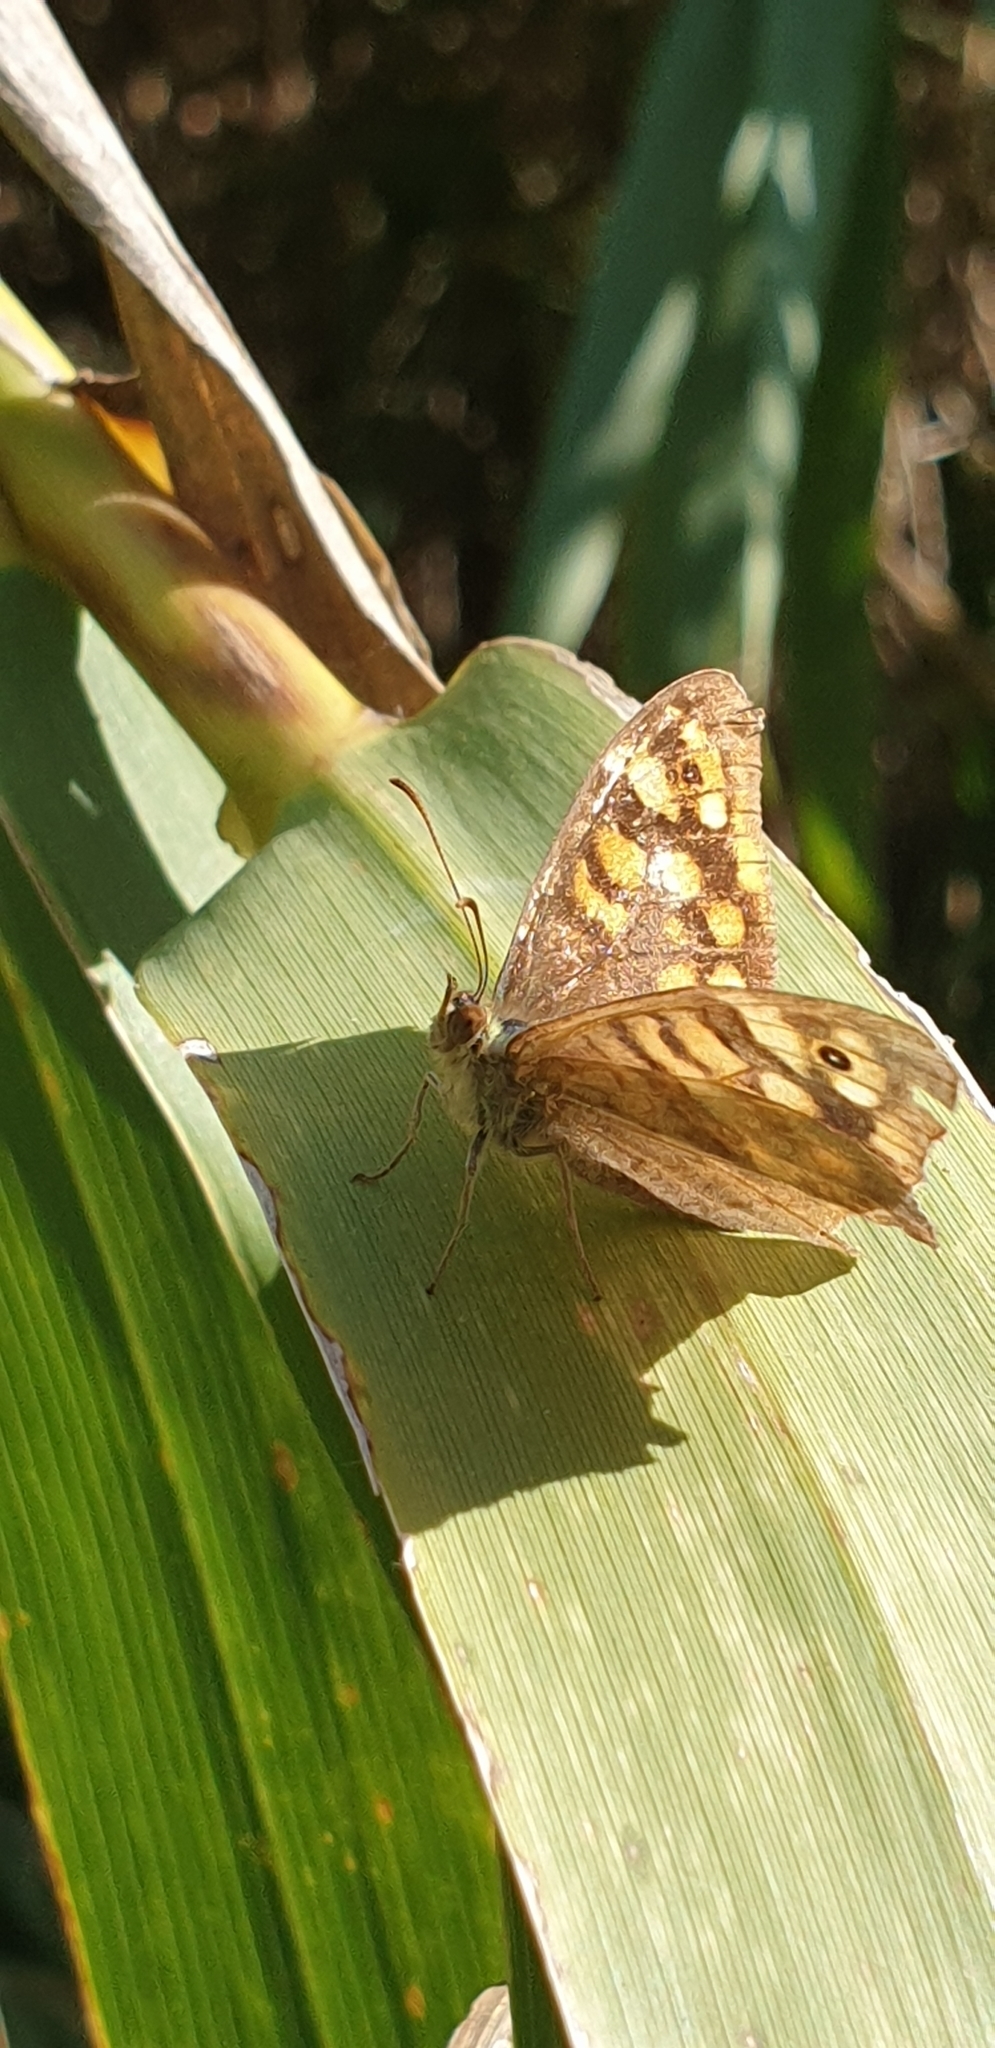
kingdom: Animalia
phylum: Arthropoda
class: Insecta
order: Lepidoptera
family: Nymphalidae
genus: Pararge
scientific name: Pararge aegeria
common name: Speckled wood
